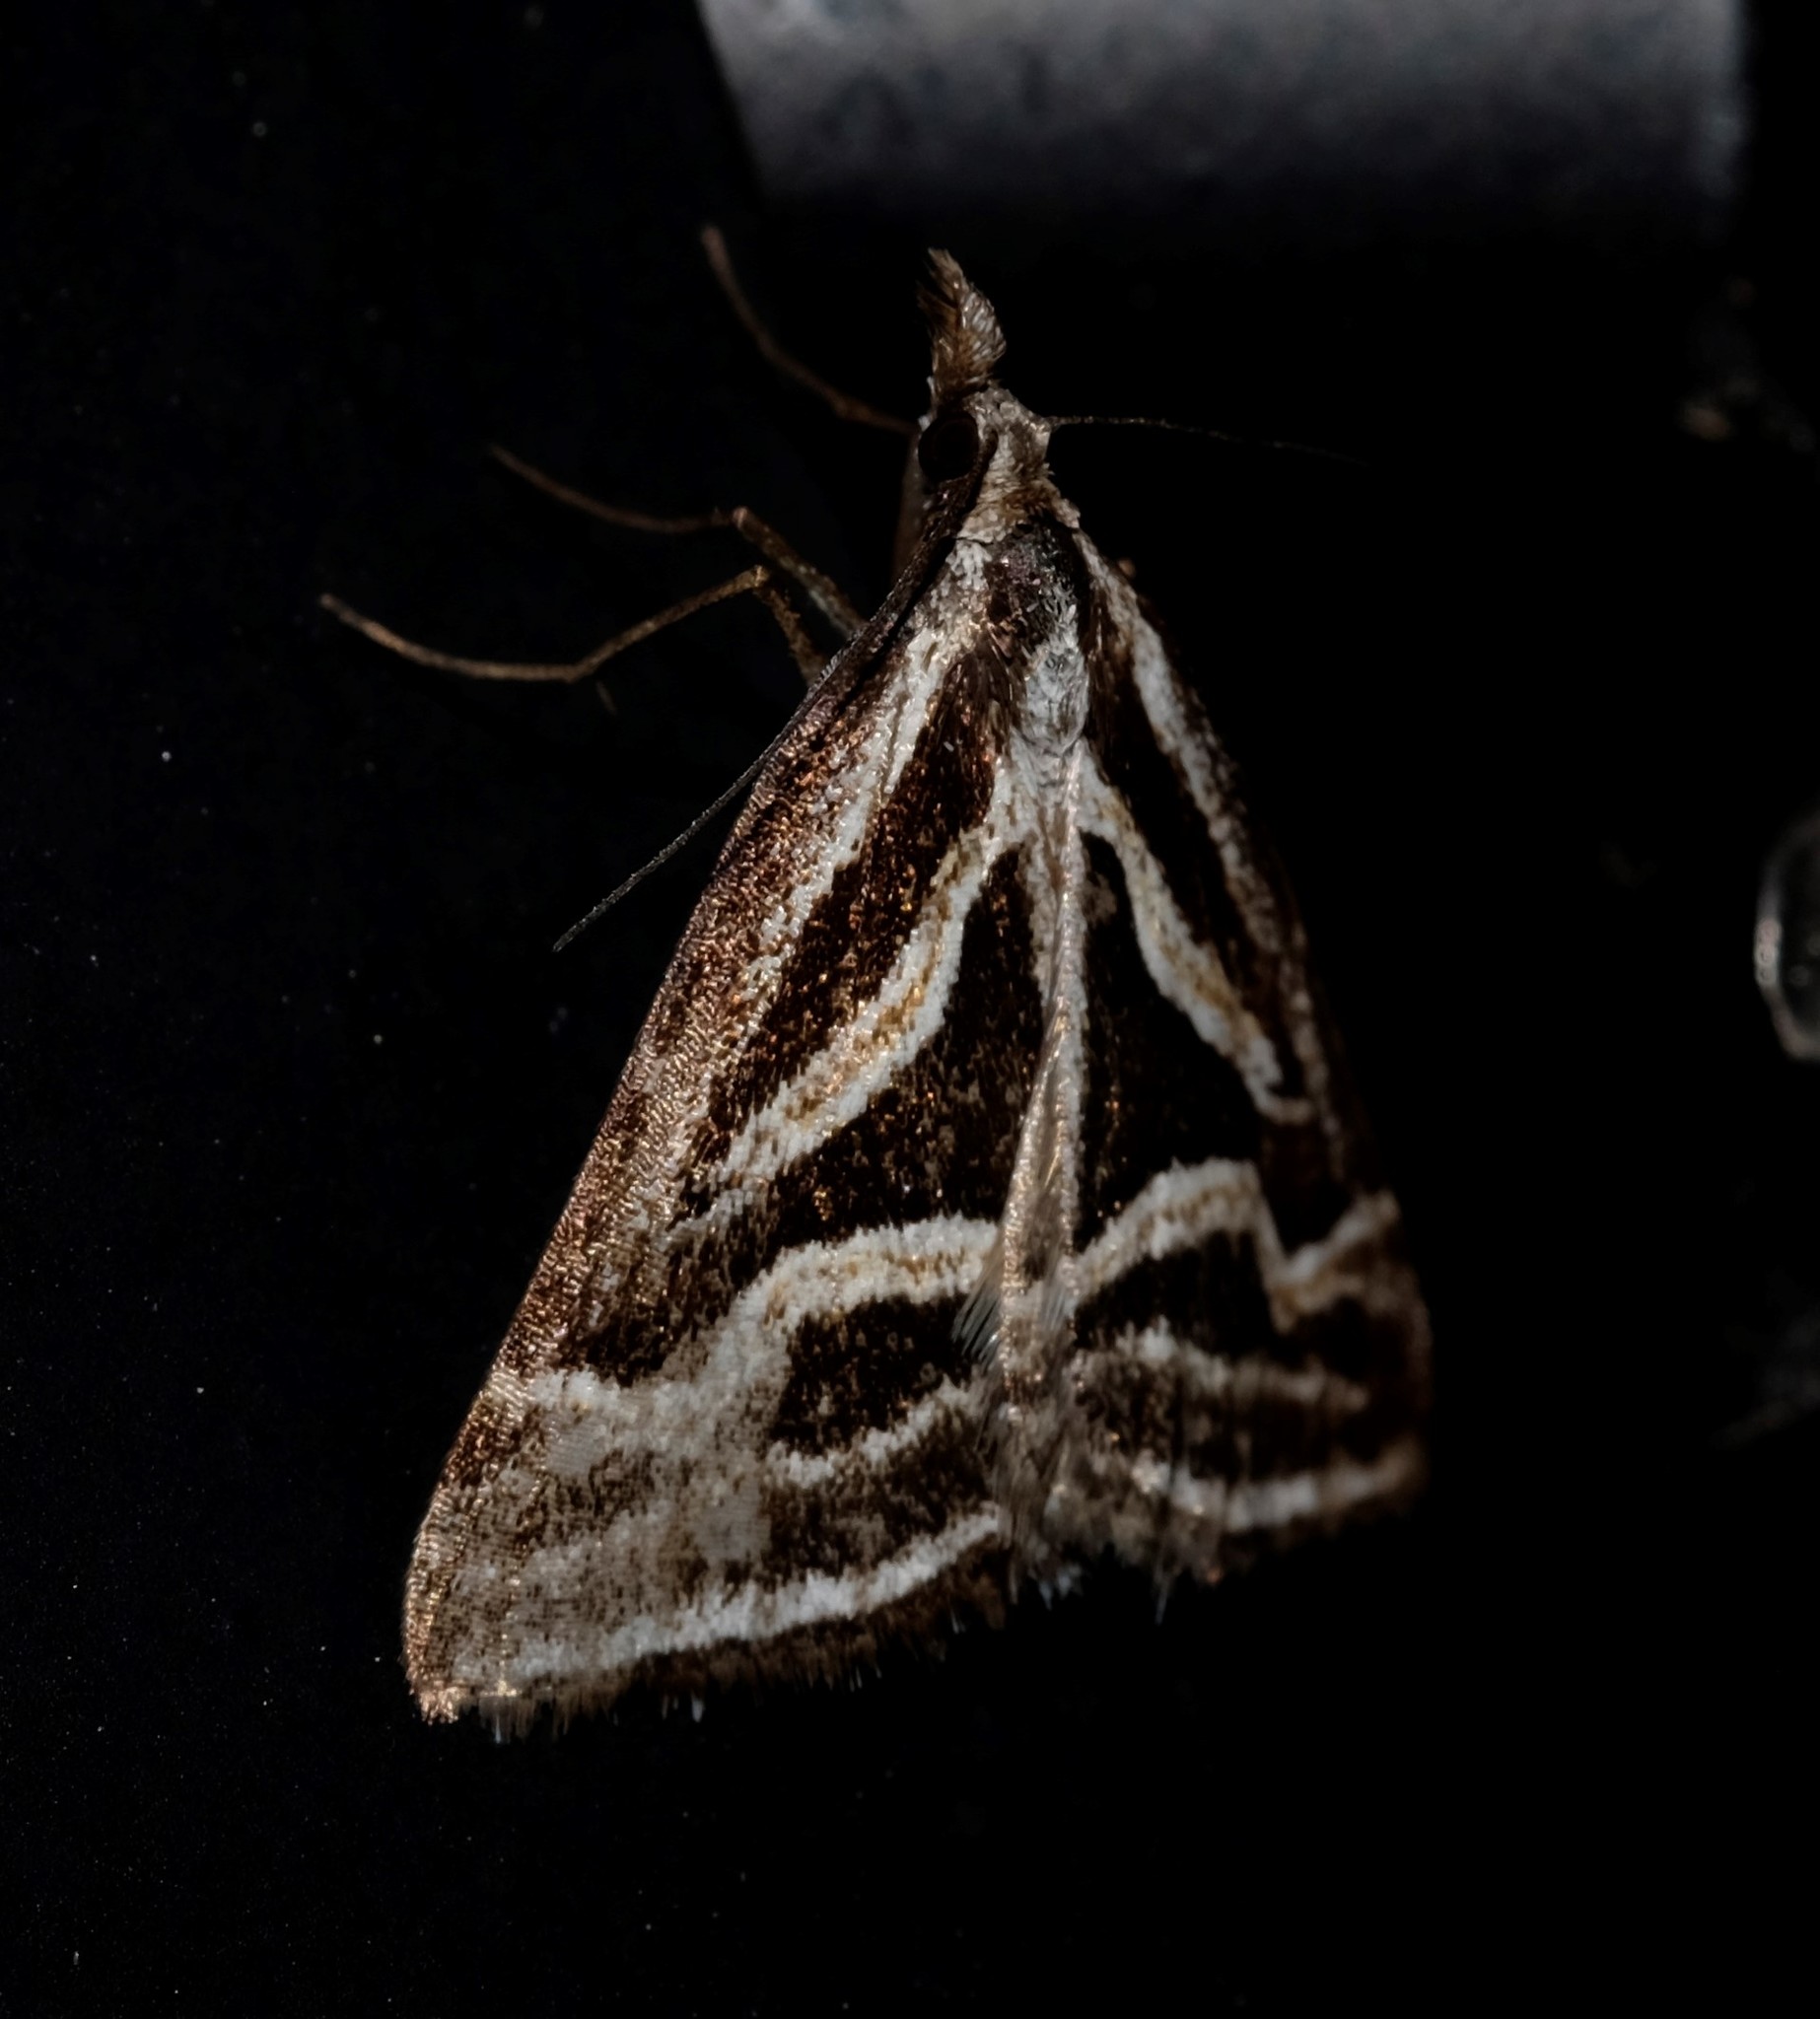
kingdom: Animalia
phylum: Arthropoda
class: Insecta
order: Lepidoptera
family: Geometridae
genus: Dichromodes
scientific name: Dichromodes confluaria
